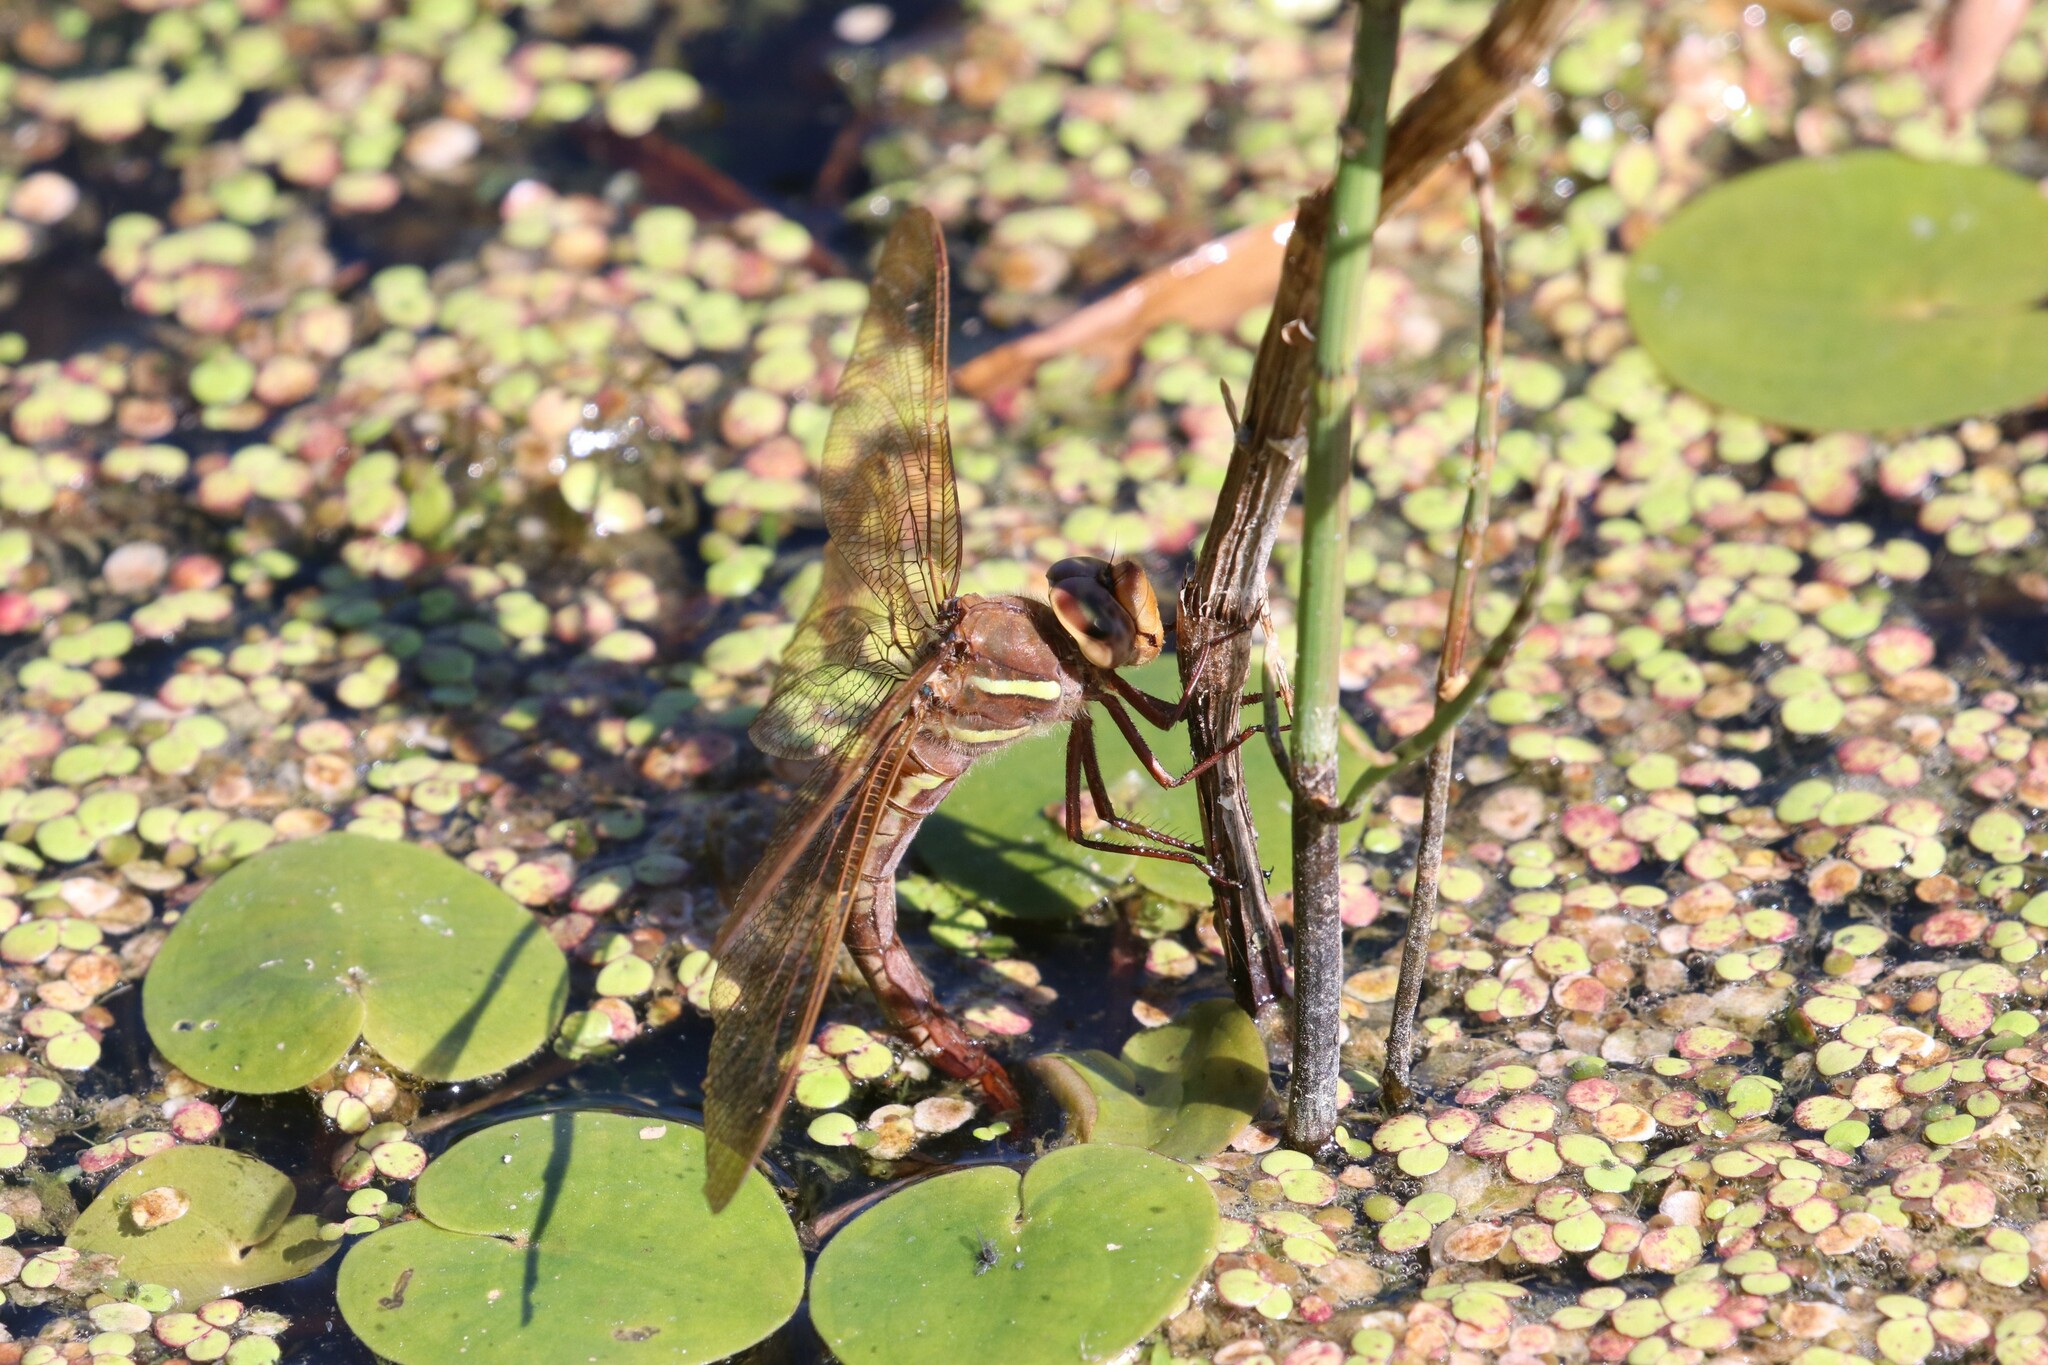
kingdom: Animalia
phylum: Arthropoda
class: Insecta
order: Odonata
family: Aeshnidae
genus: Aeshna
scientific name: Aeshna grandis
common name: Brown hawker
